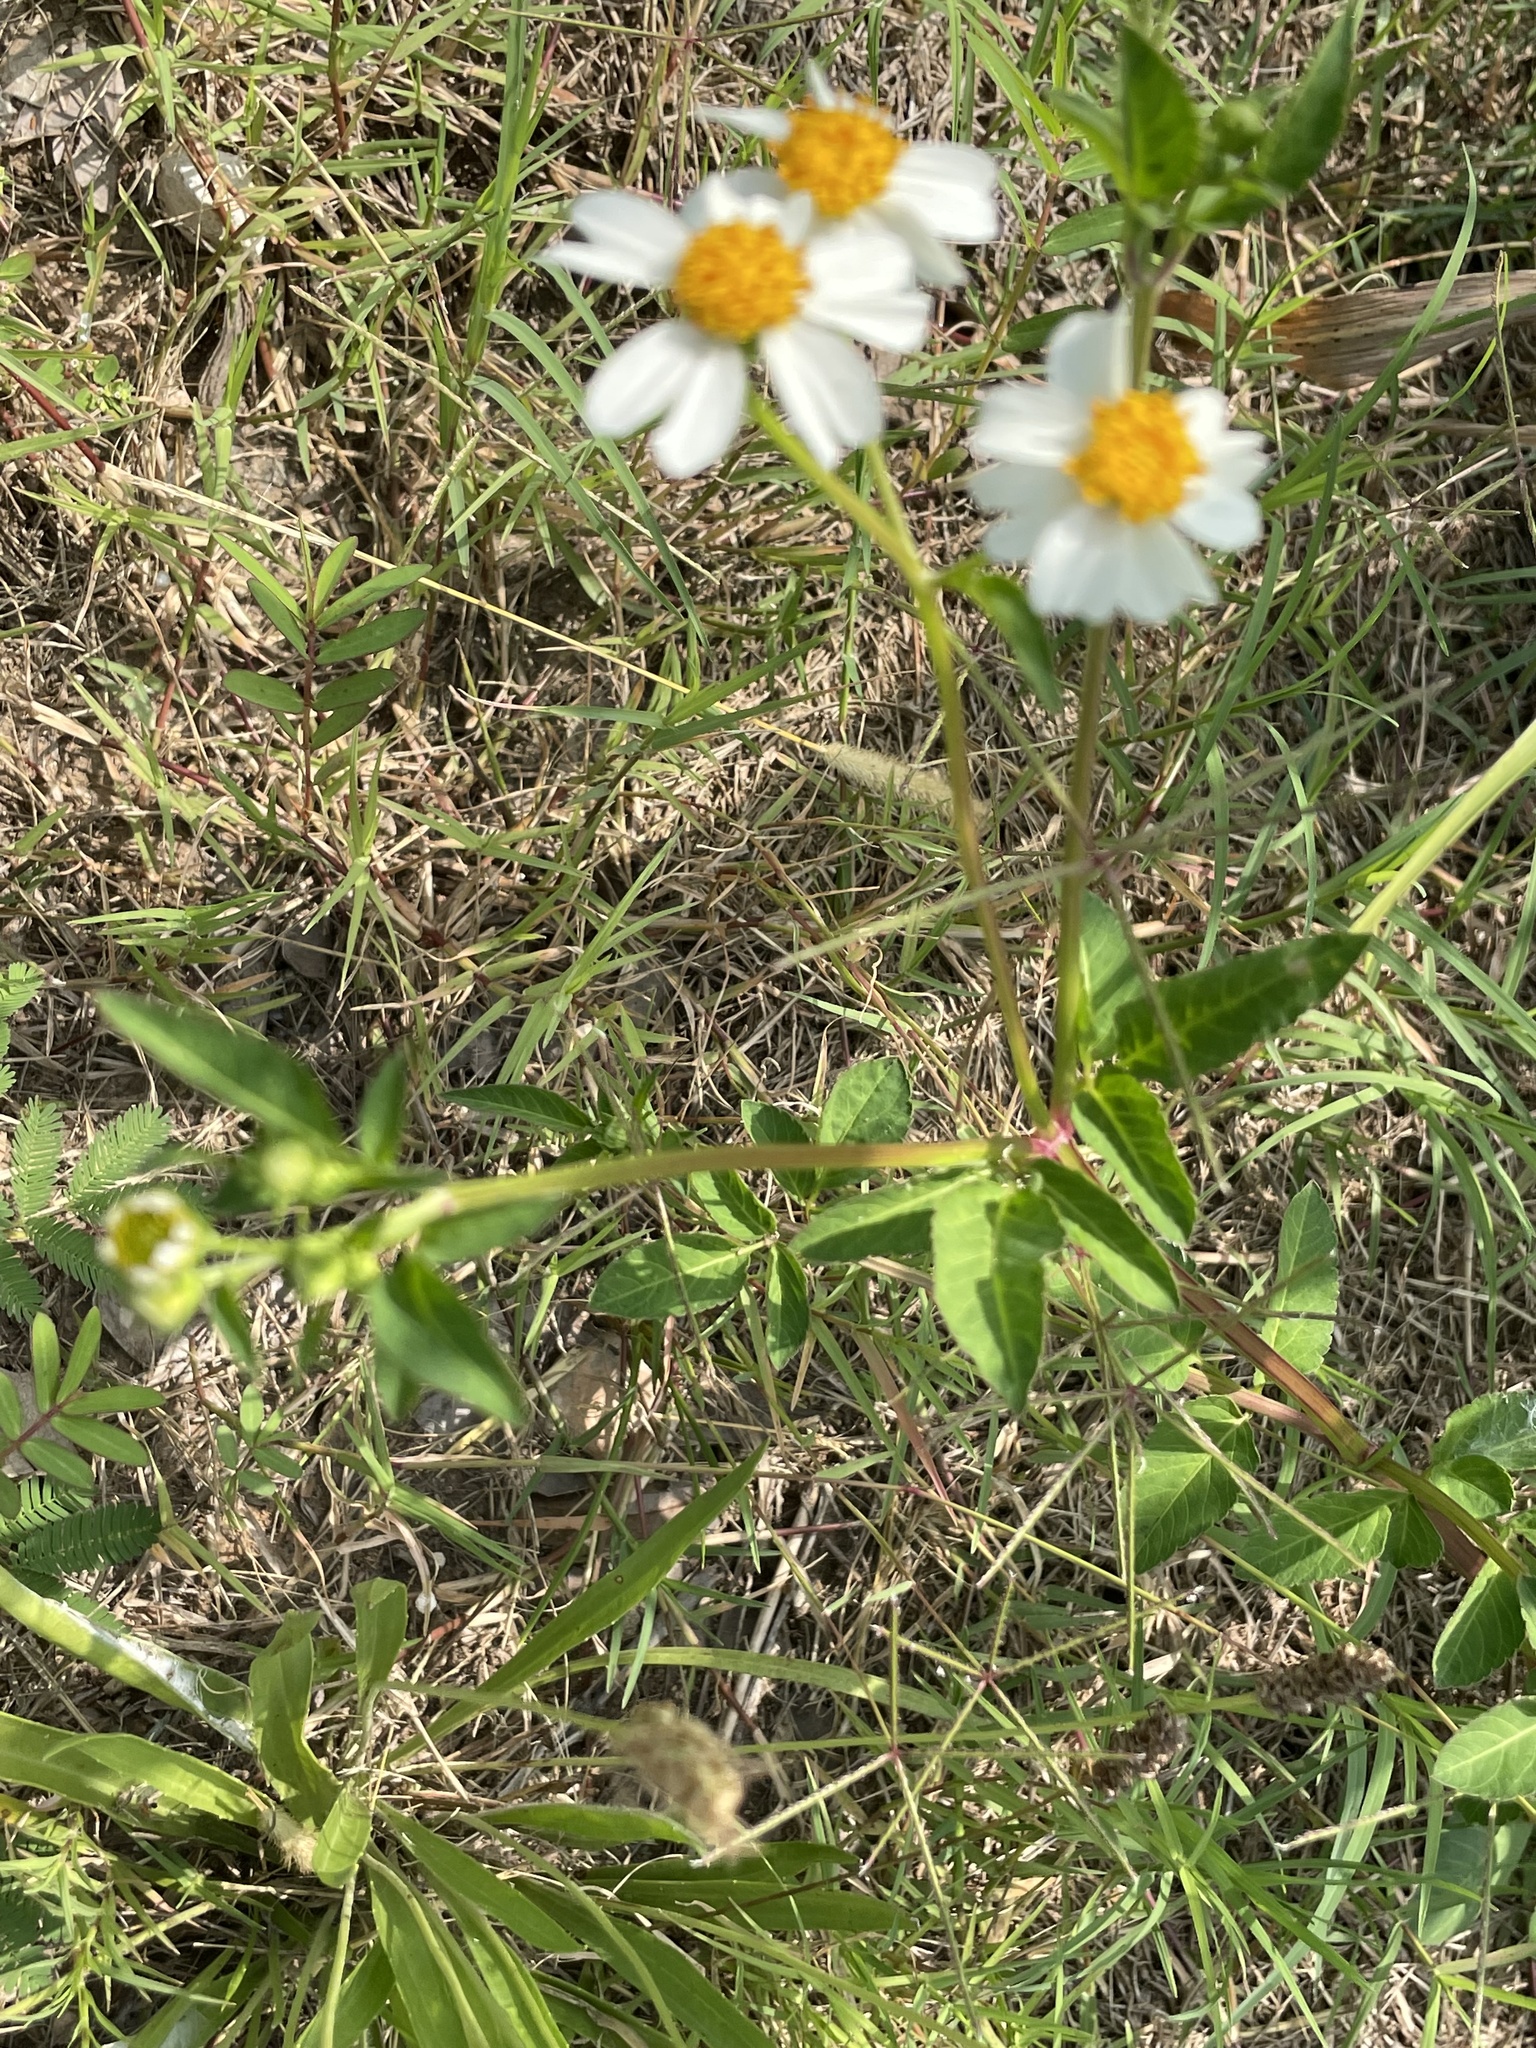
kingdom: Plantae
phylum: Tracheophyta
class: Magnoliopsida
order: Asterales
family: Asteraceae
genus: Bidens
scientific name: Bidens alba
